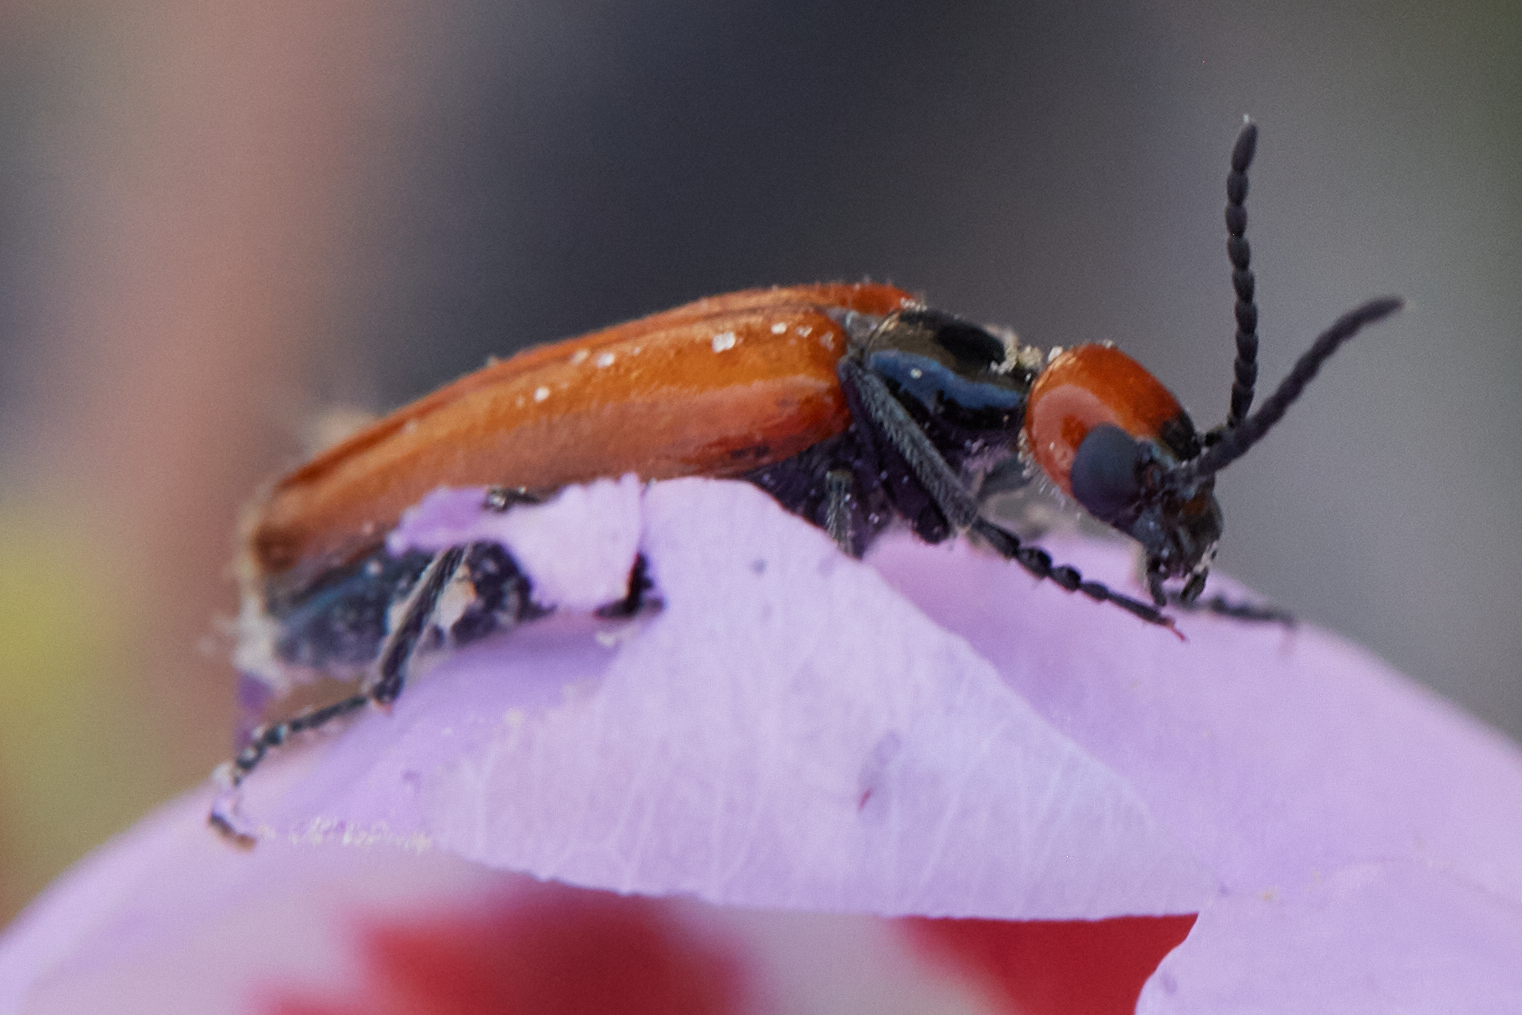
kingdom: Animalia
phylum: Arthropoda
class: Insecta
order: Coleoptera
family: Meloidae
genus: Eupompha
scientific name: Eupompha schwarzi
